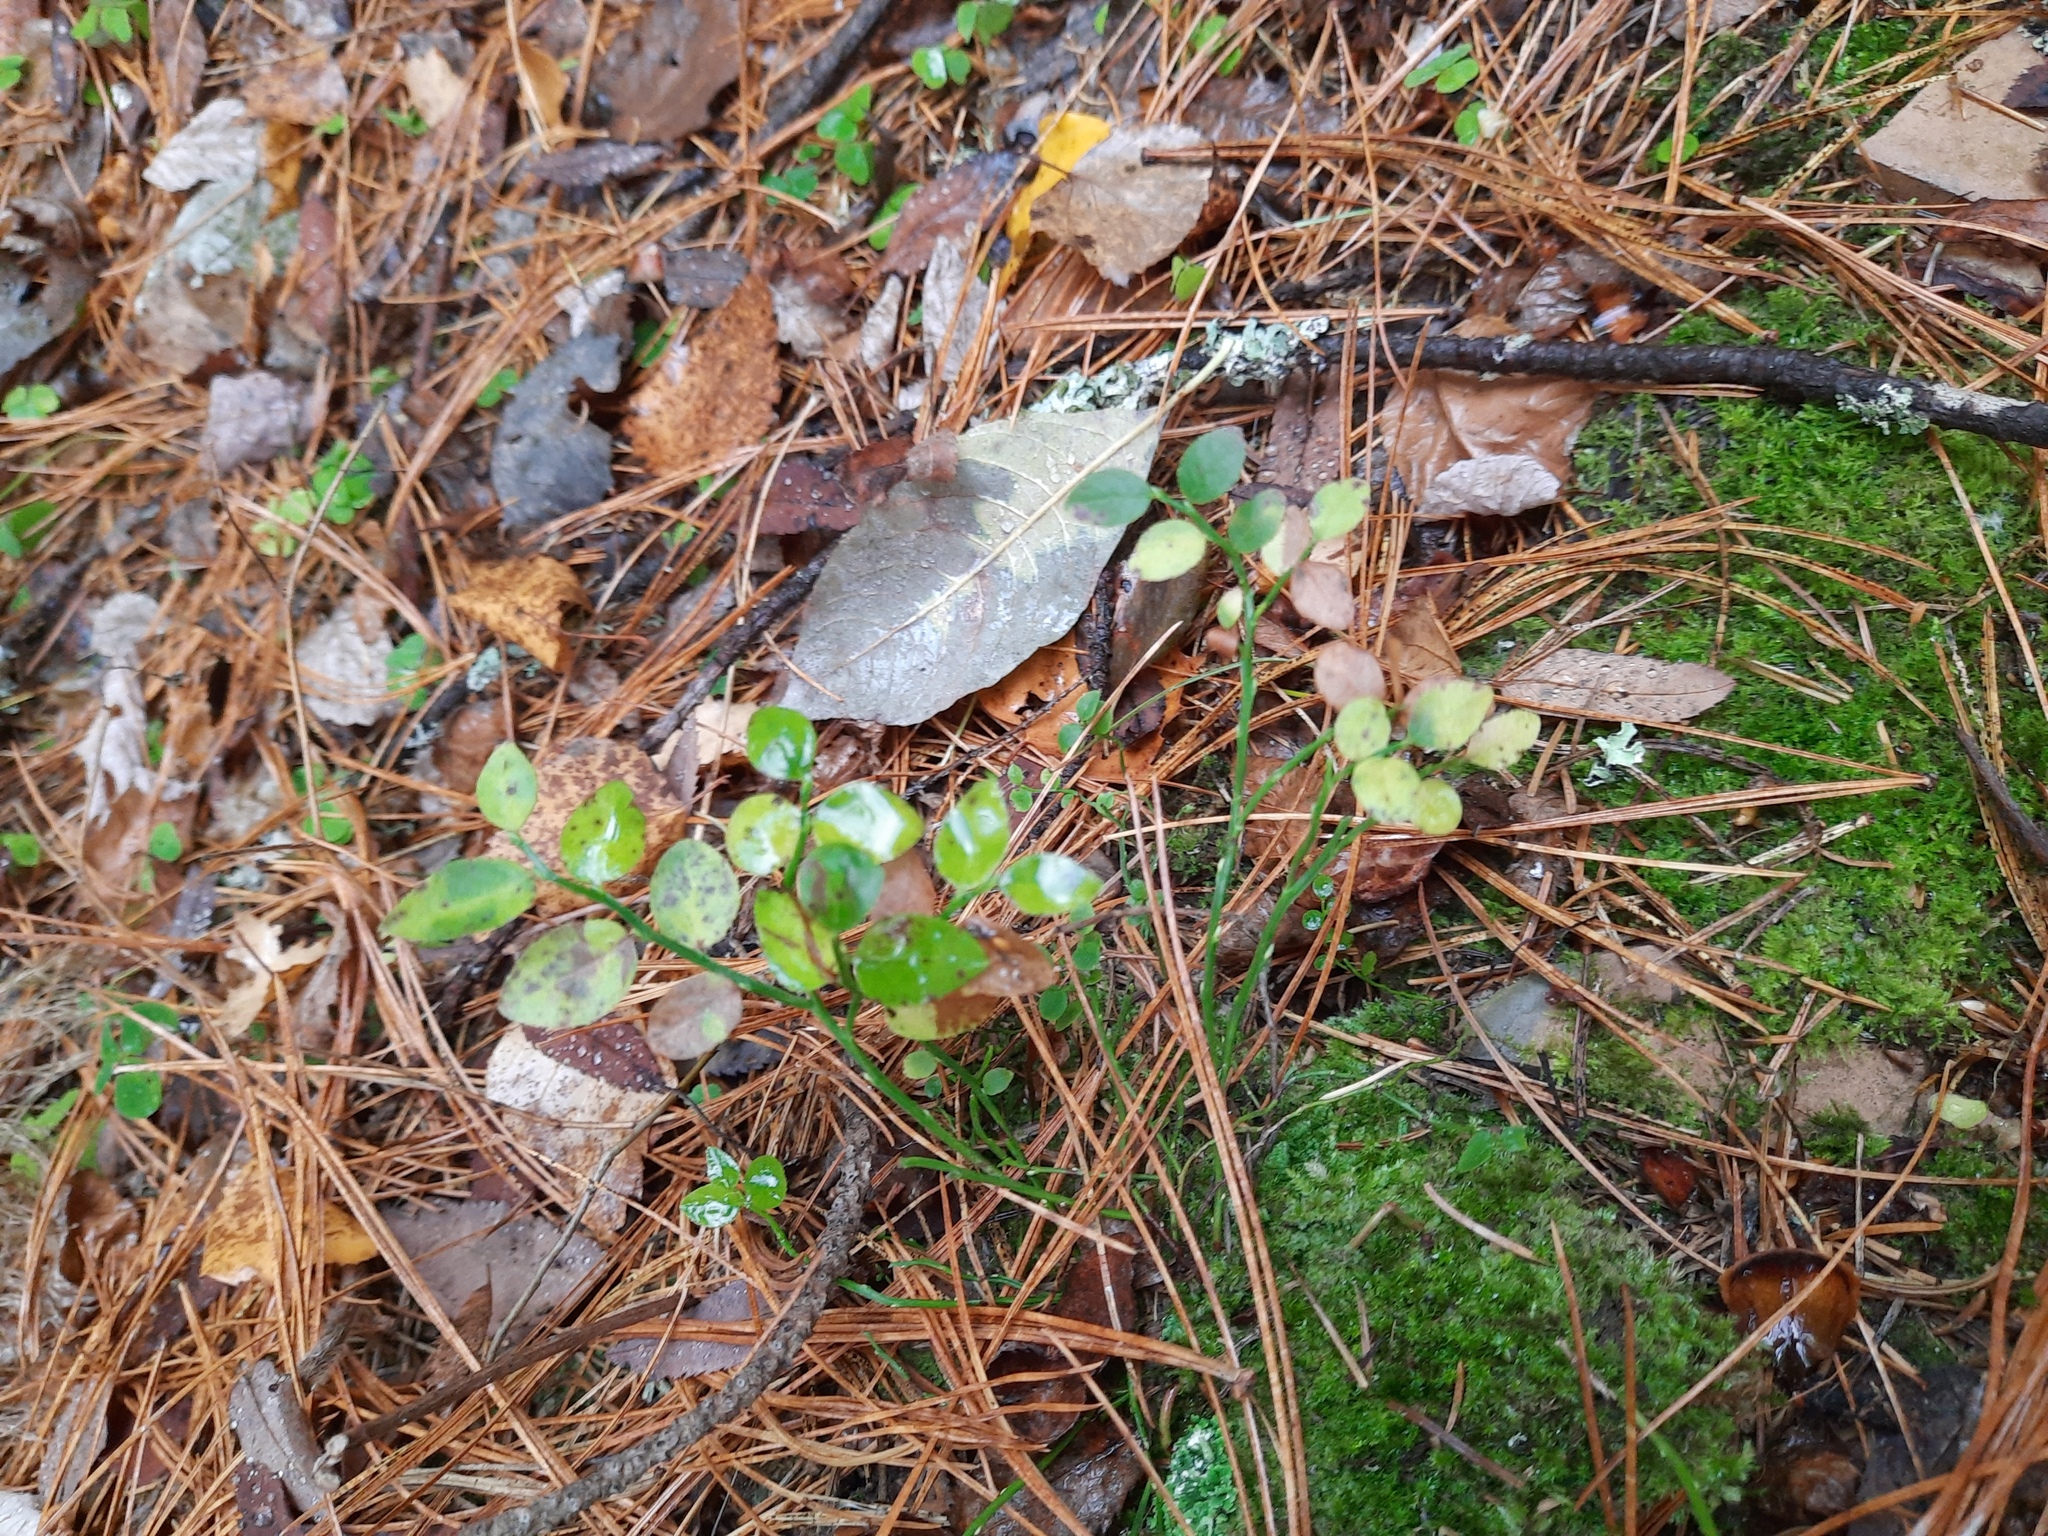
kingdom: Plantae
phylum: Tracheophyta
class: Magnoliopsida
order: Ericales
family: Ericaceae
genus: Vaccinium
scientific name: Vaccinium myrtillus
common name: Bilberry
